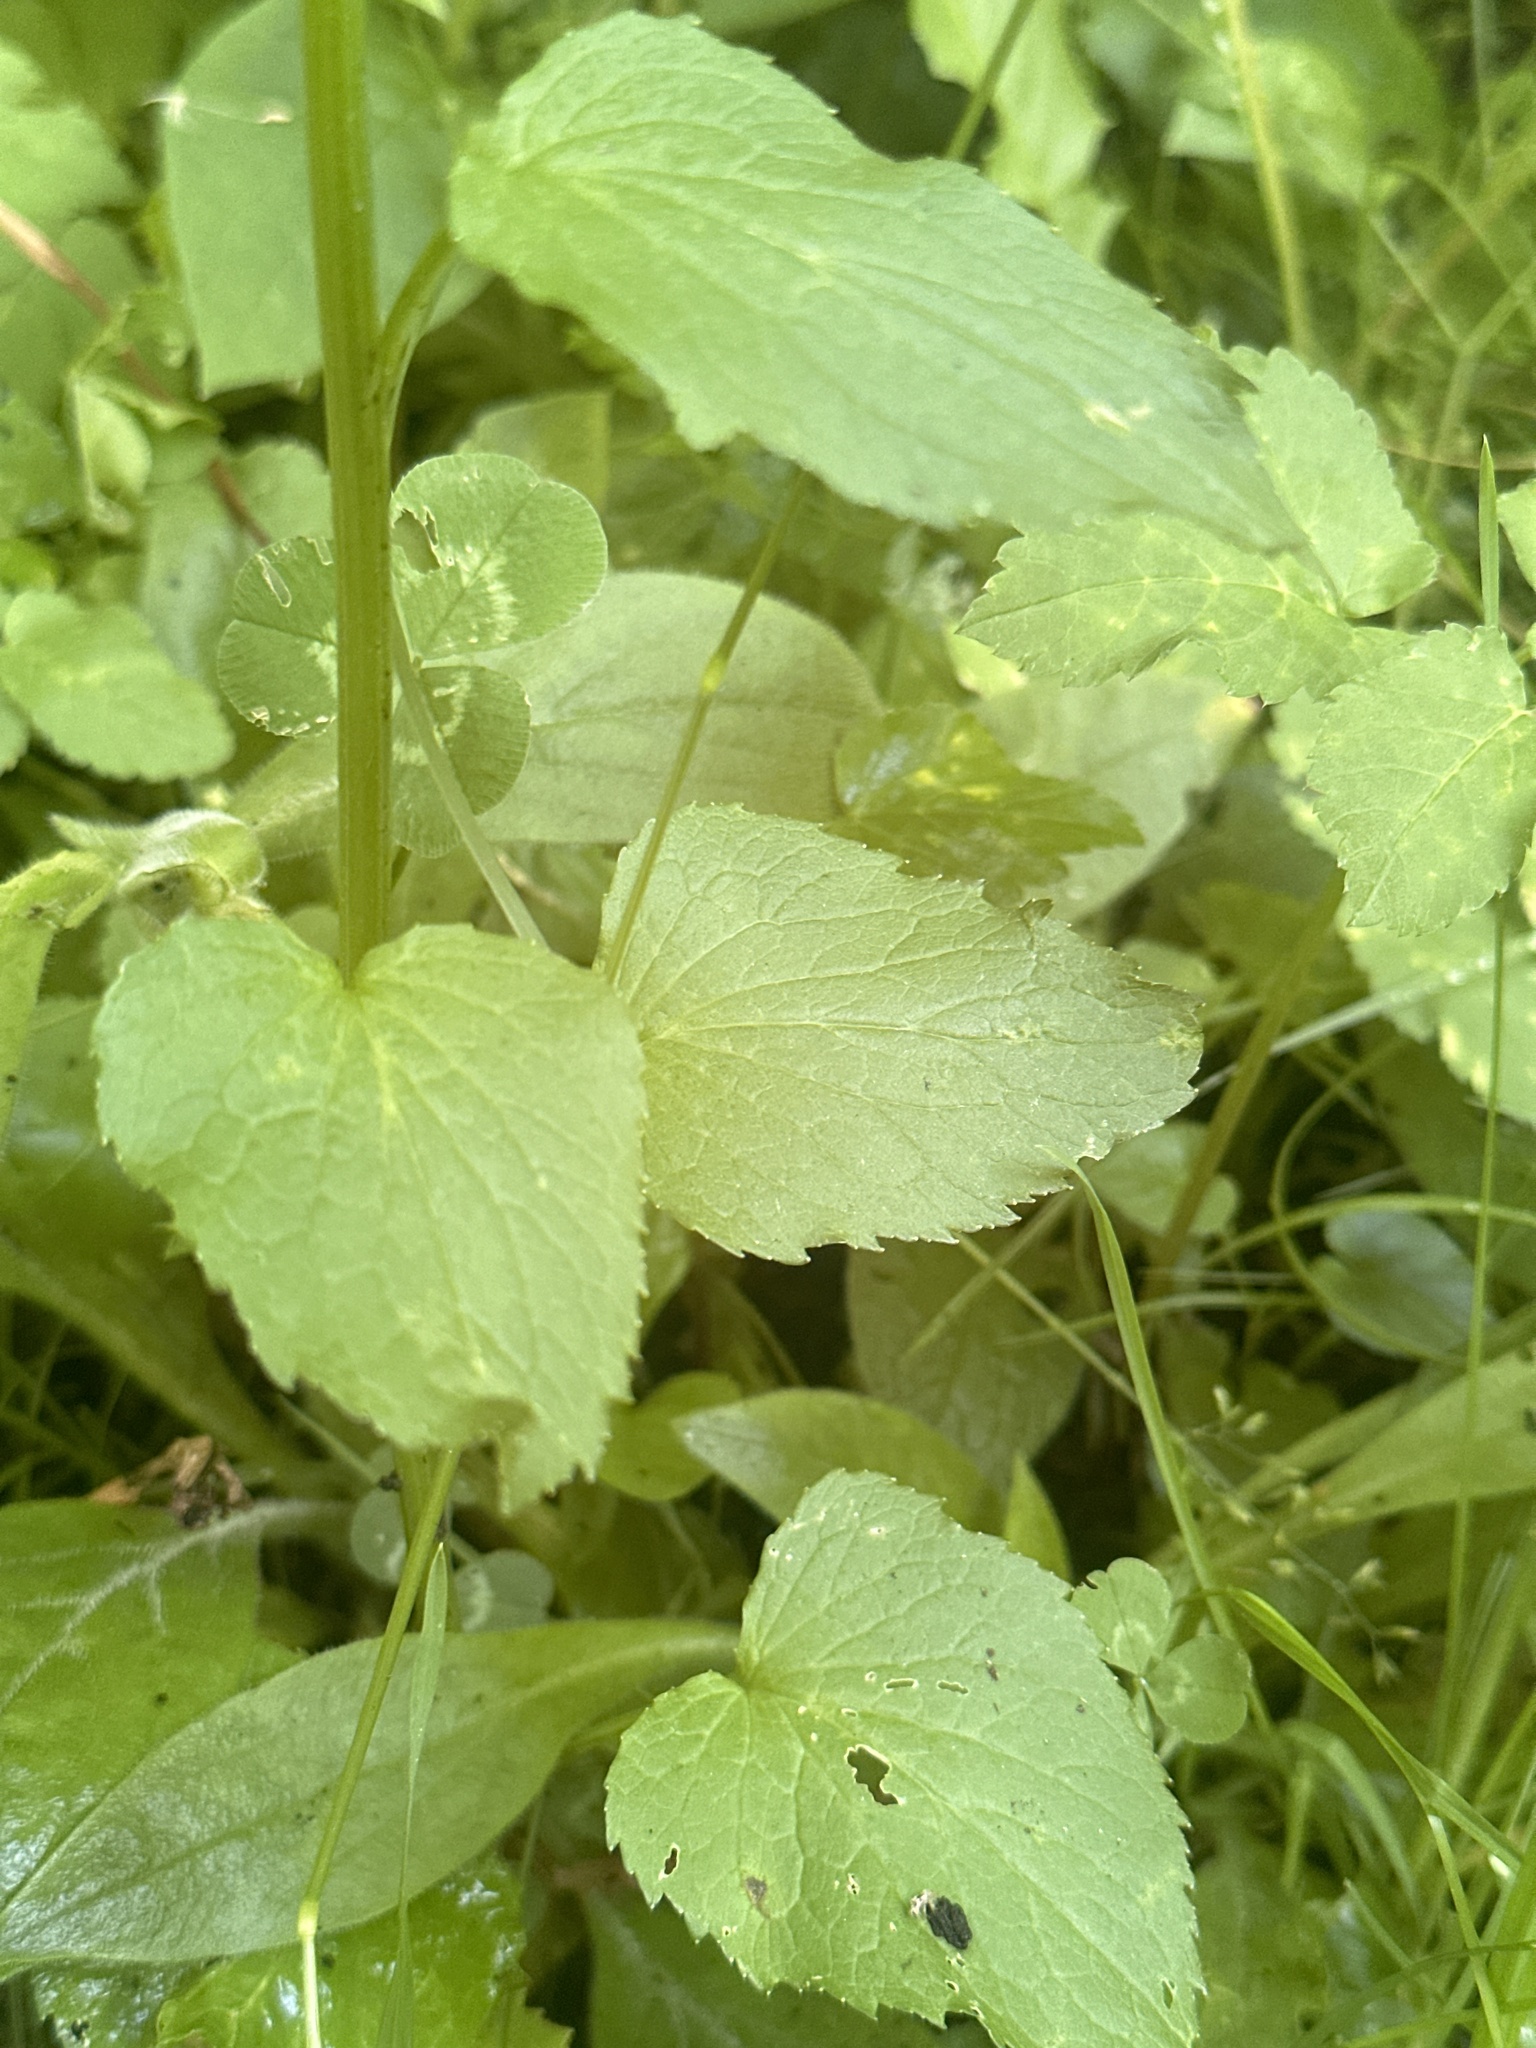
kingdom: Plantae
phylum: Tracheophyta
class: Magnoliopsida
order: Asterales
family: Campanulaceae
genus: Phyteuma
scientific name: Phyteuma spicatum
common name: Spiked rampion
